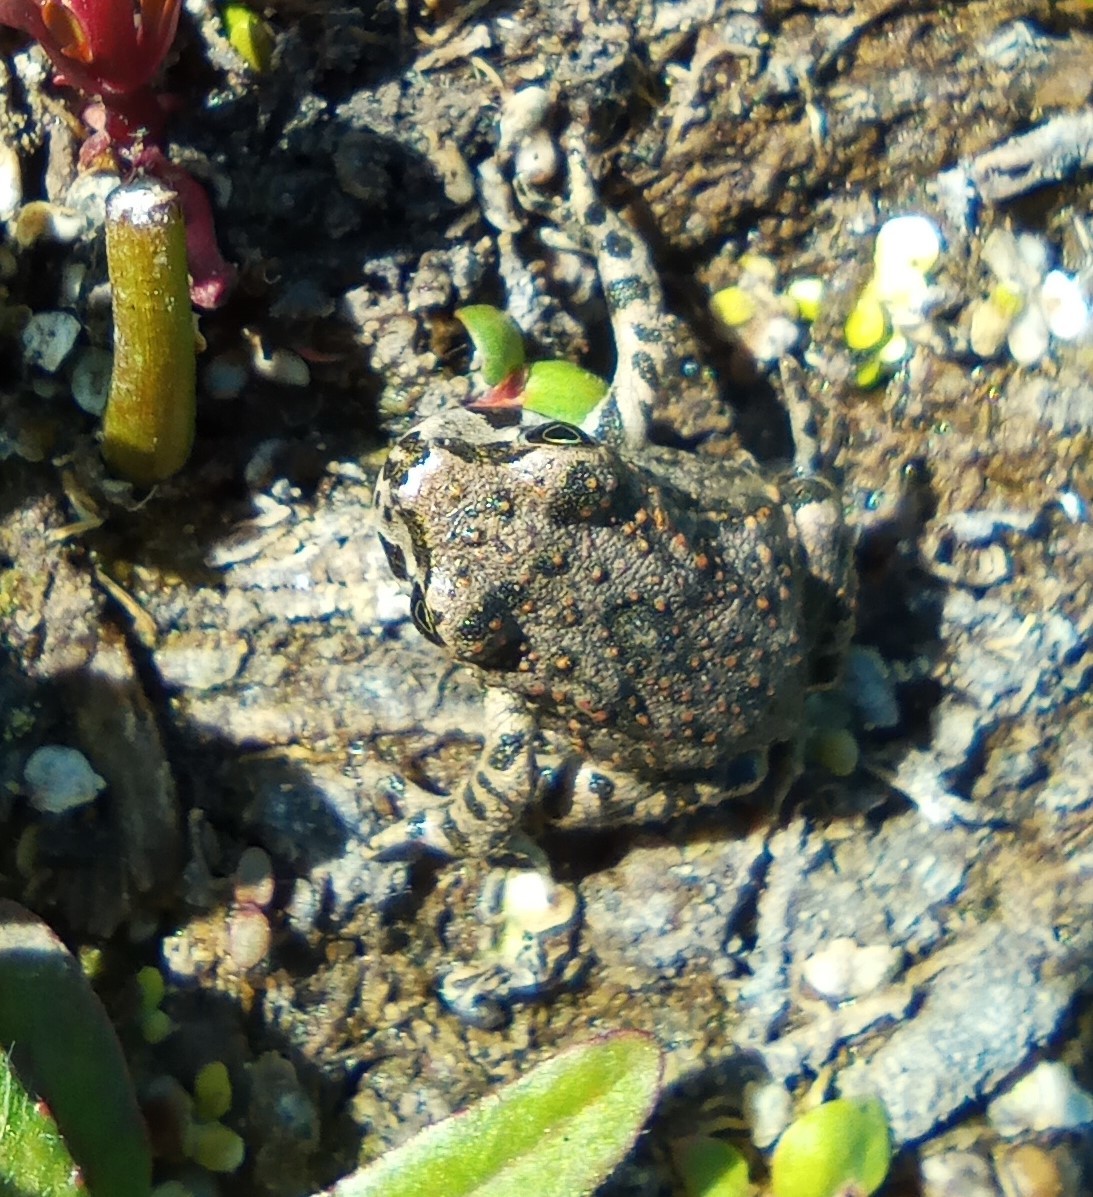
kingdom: Animalia
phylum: Chordata
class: Amphibia
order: Anura
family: Bufonidae
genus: Bufotes
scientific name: Bufotes viridis
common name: European green toad
